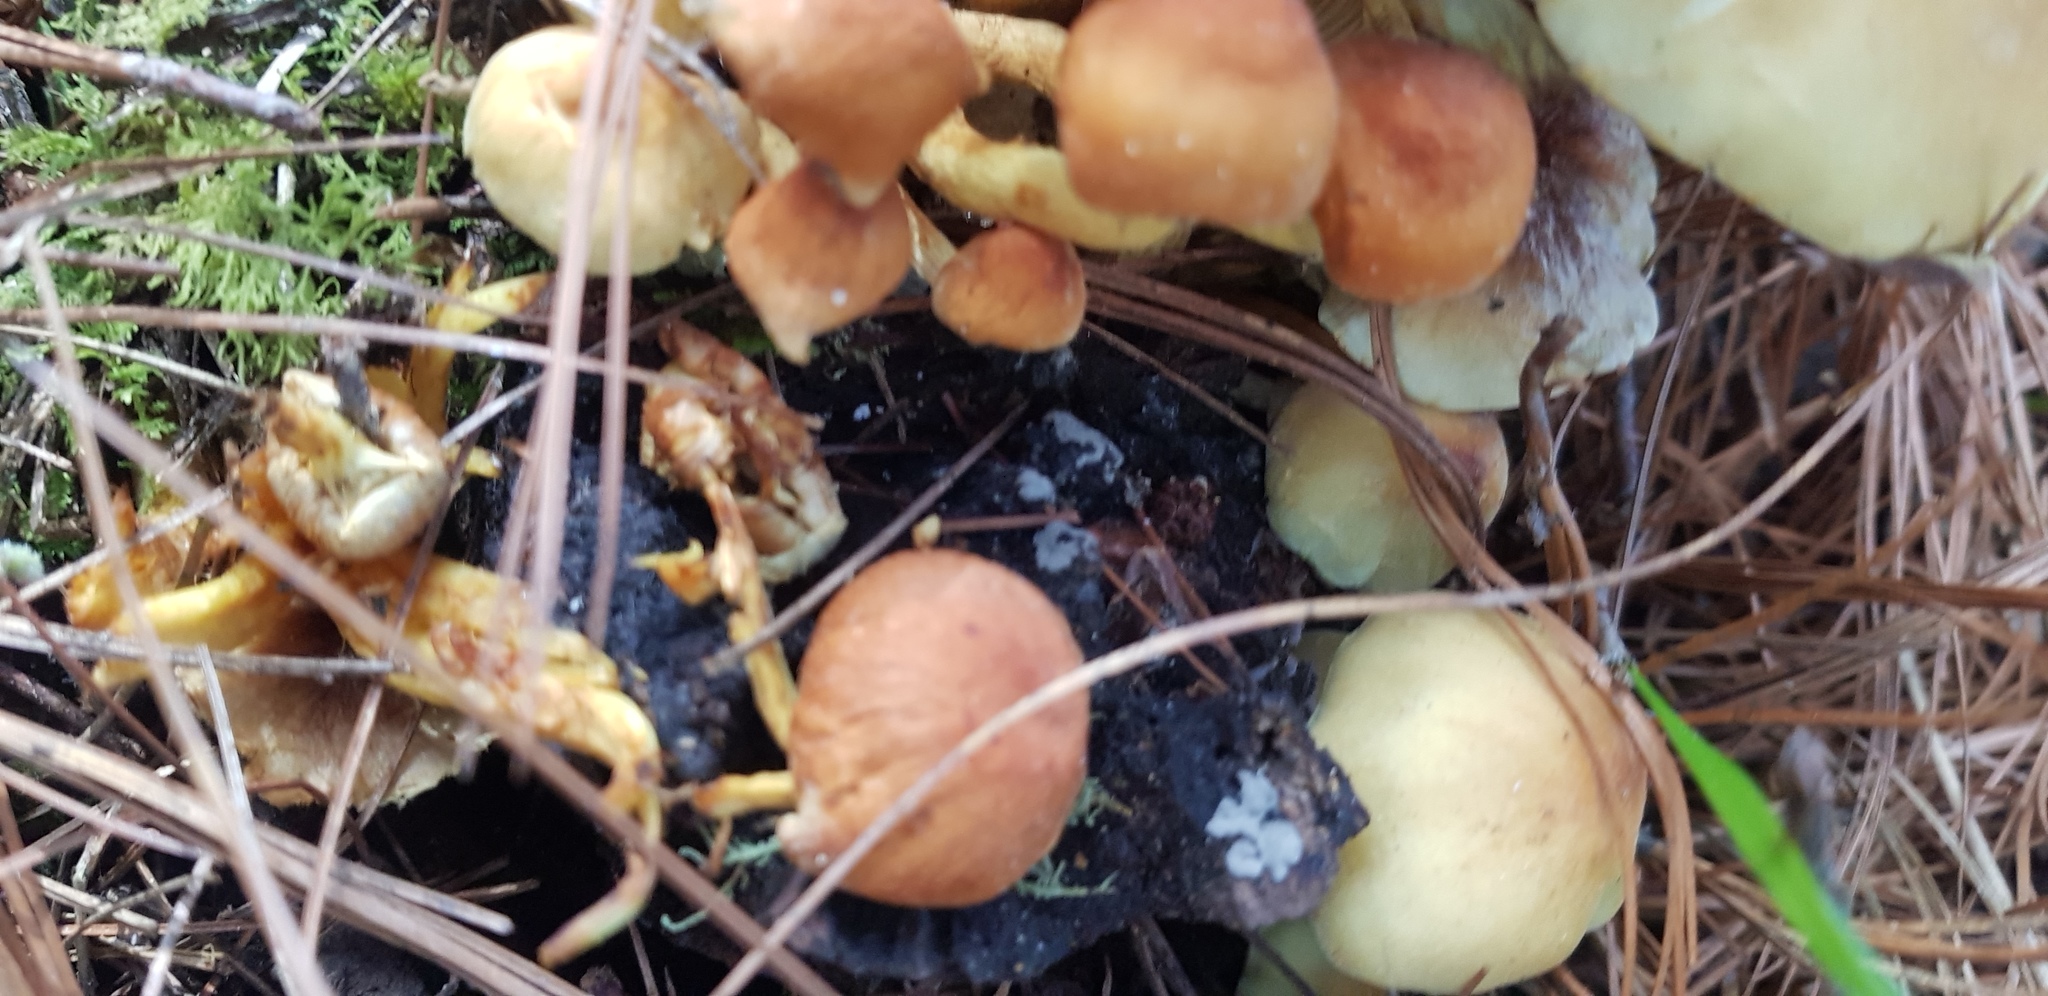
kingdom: Fungi
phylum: Basidiomycota
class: Agaricomycetes
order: Agaricales
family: Strophariaceae
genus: Hypholoma
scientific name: Hypholoma fasciculare
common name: Sulphur tuft
